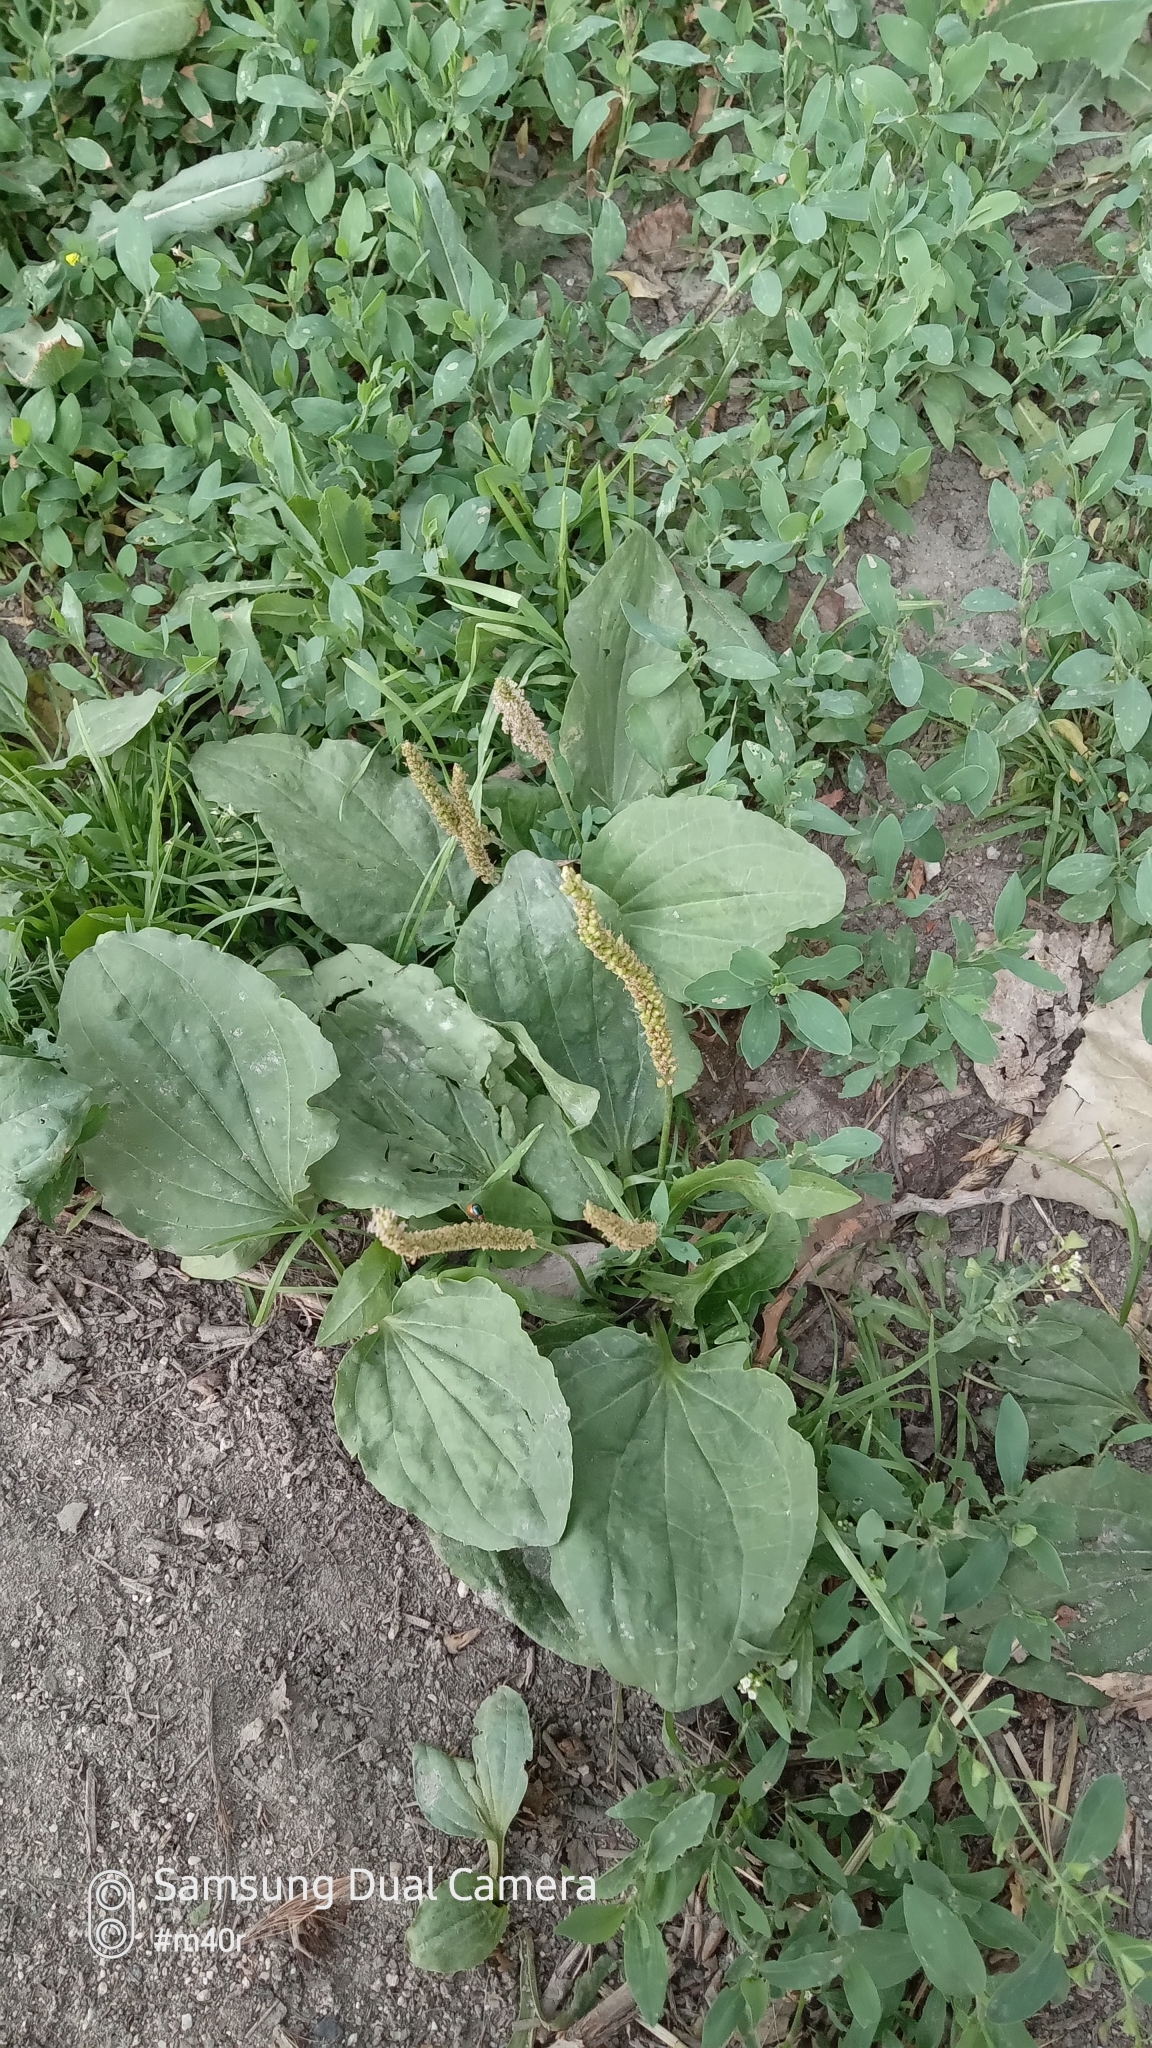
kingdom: Plantae
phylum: Tracheophyta
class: Magnoliopsida
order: Lamiales
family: Plantaginaceae
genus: Plantago
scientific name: Plantago major
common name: Common plantain
